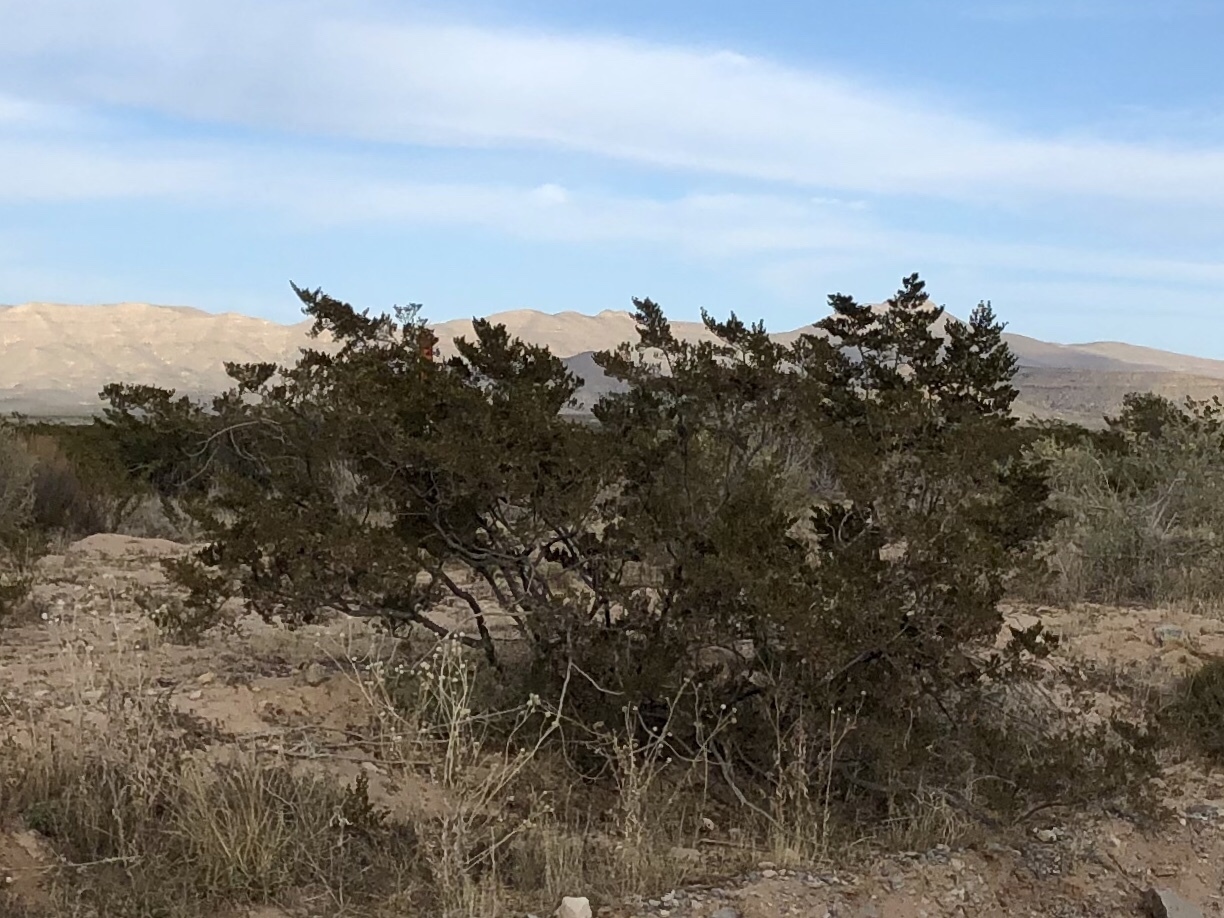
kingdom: Plantae
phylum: Tracheophyta
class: Magnoliopsida
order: Zygophyllales
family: Zygophyllaceae
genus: Larrea
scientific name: Larrea tridentata
